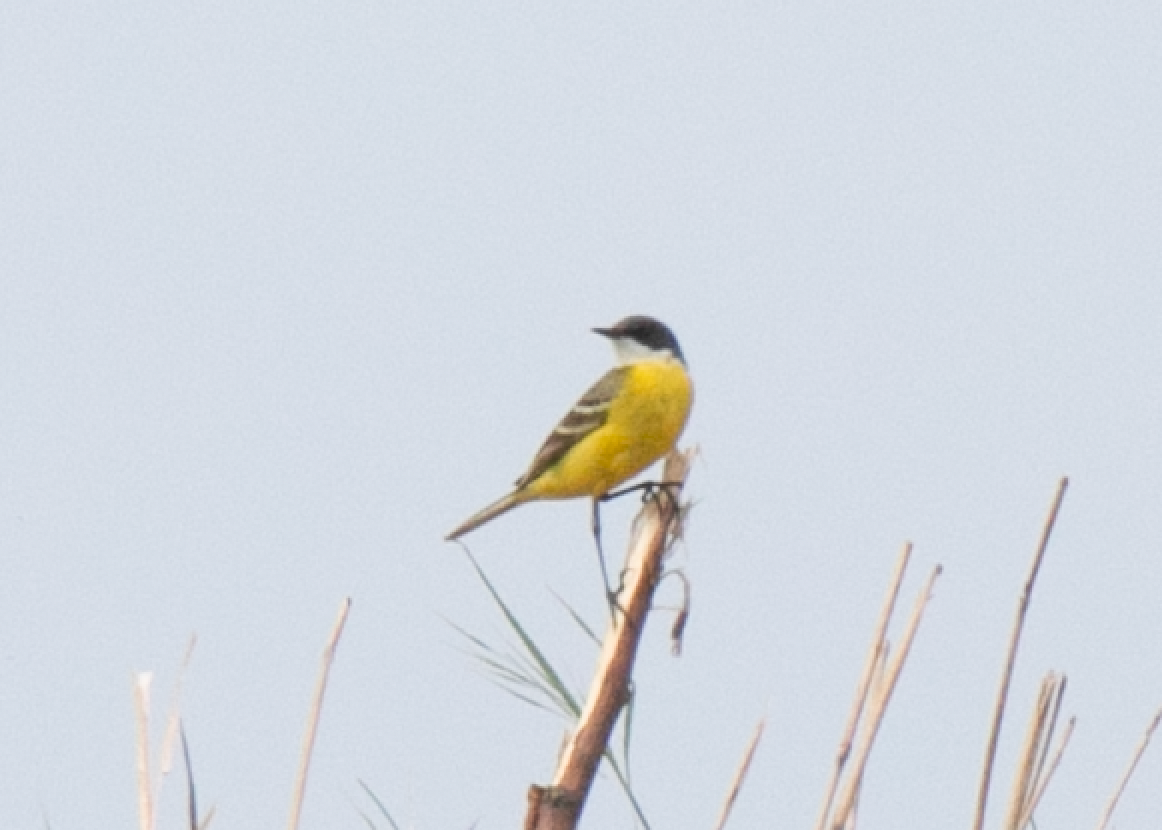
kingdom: Animalia
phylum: Chordata
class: Aves
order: Passeriformes
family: Motacillidae
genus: Motacilla
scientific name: Motacilla flava
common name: Western yellow wagtail
